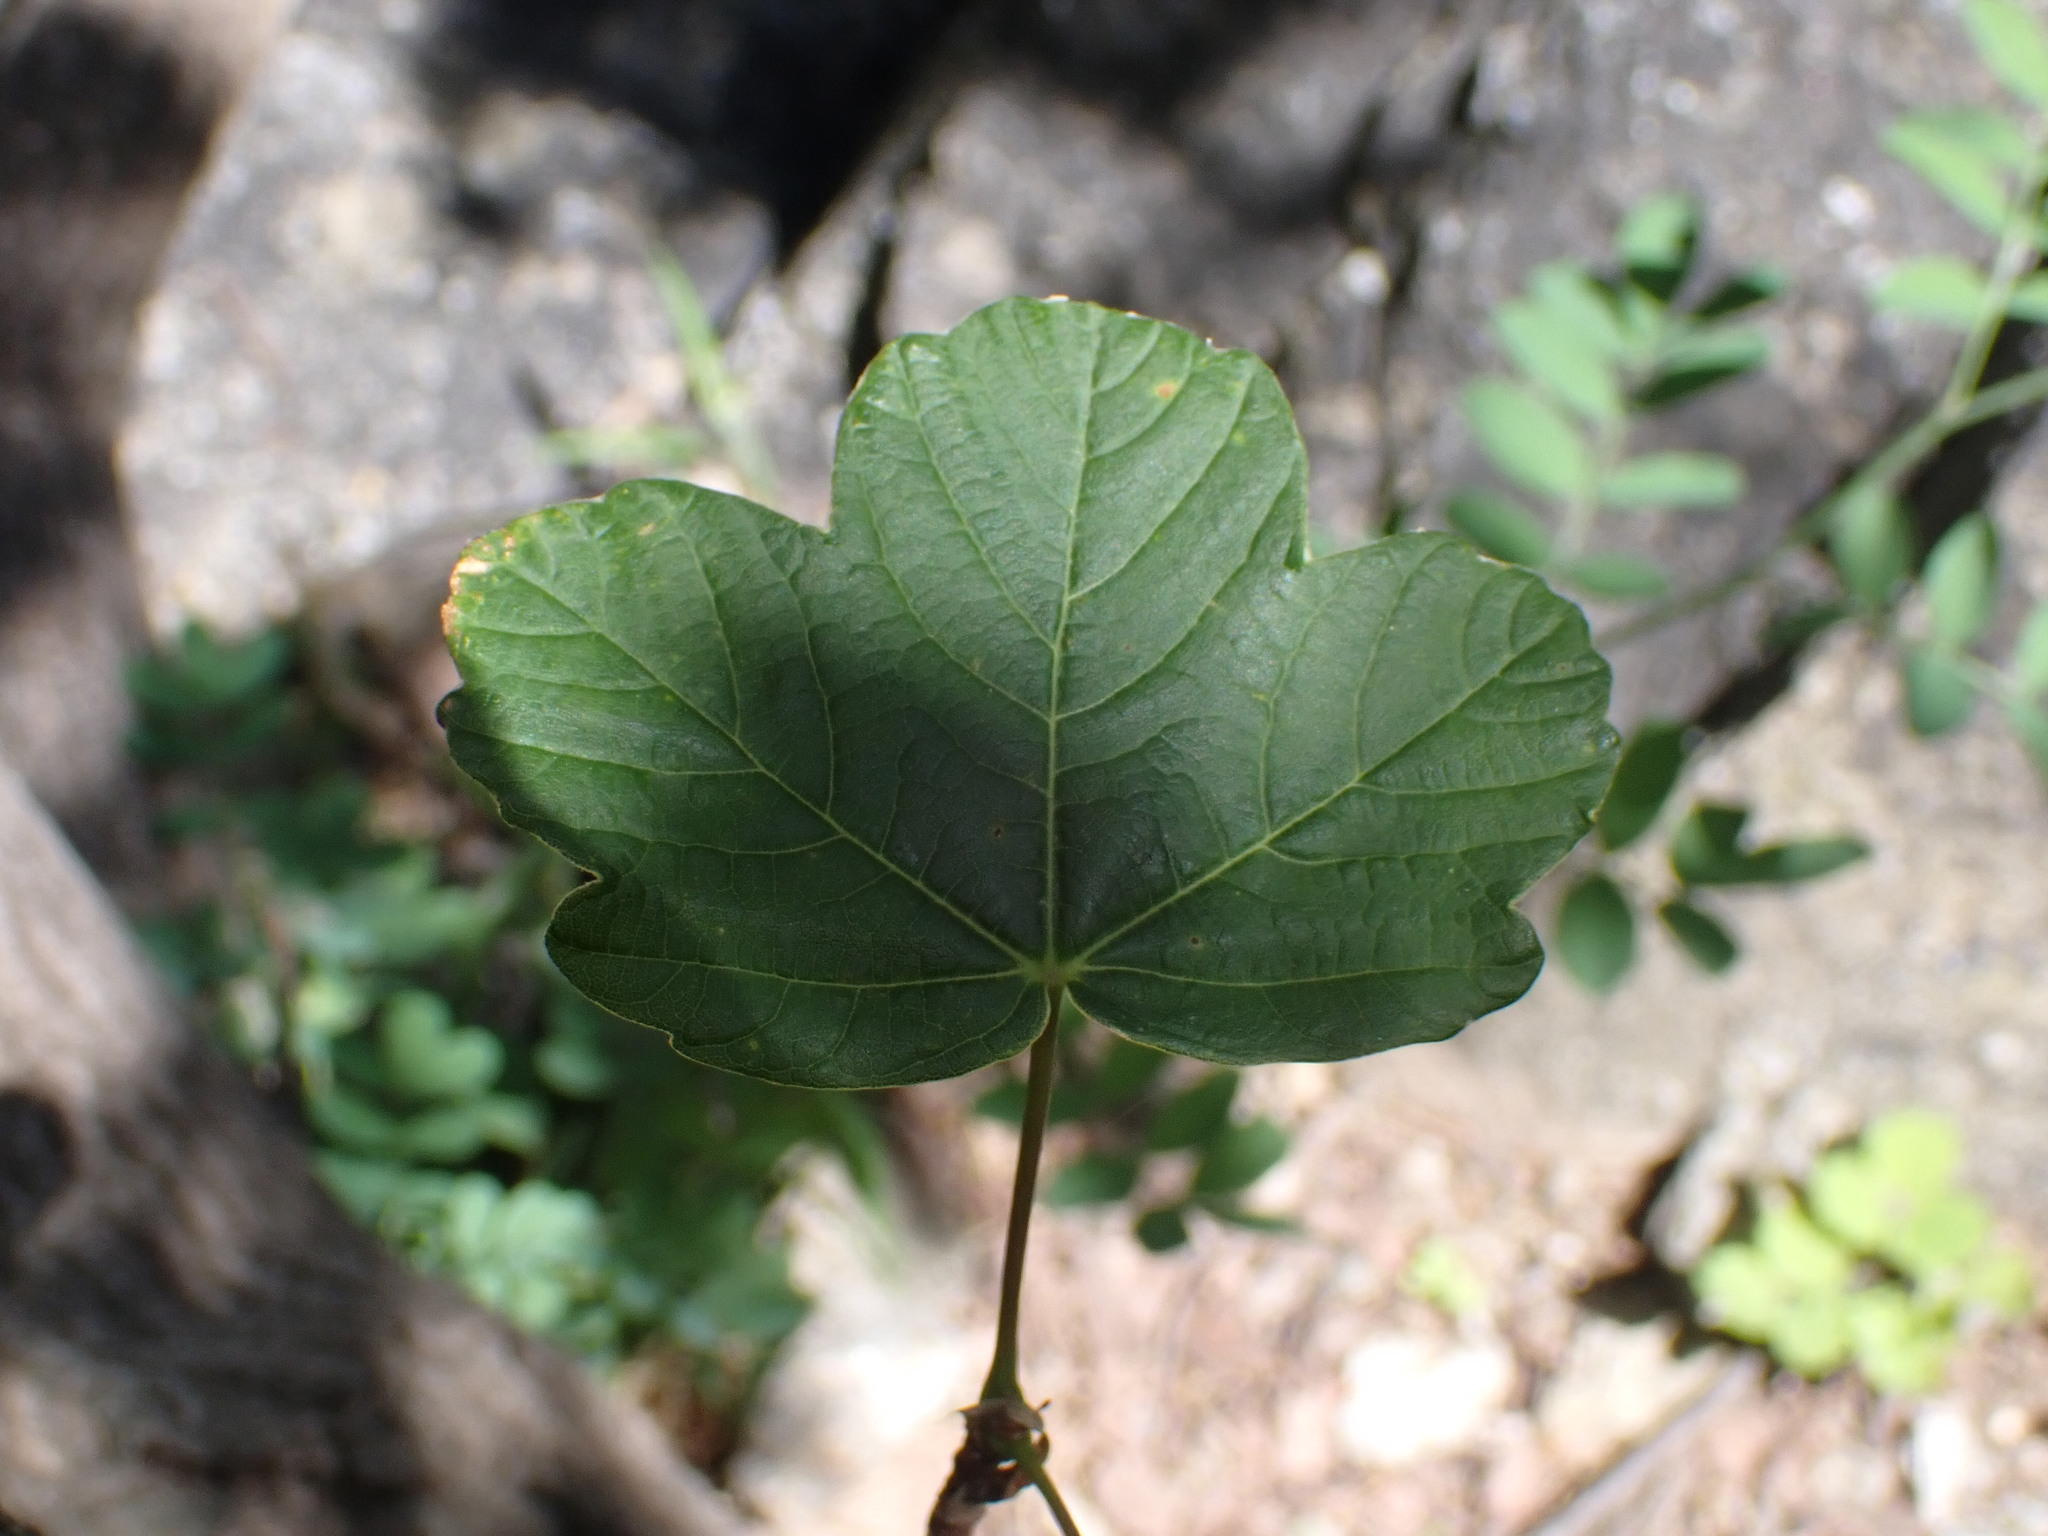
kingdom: Plantae
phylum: Tracheophyta
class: Magnoliopsida
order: Sapindales
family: Sapindaceae
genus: Acer
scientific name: Acer opalus
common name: Italian maple
